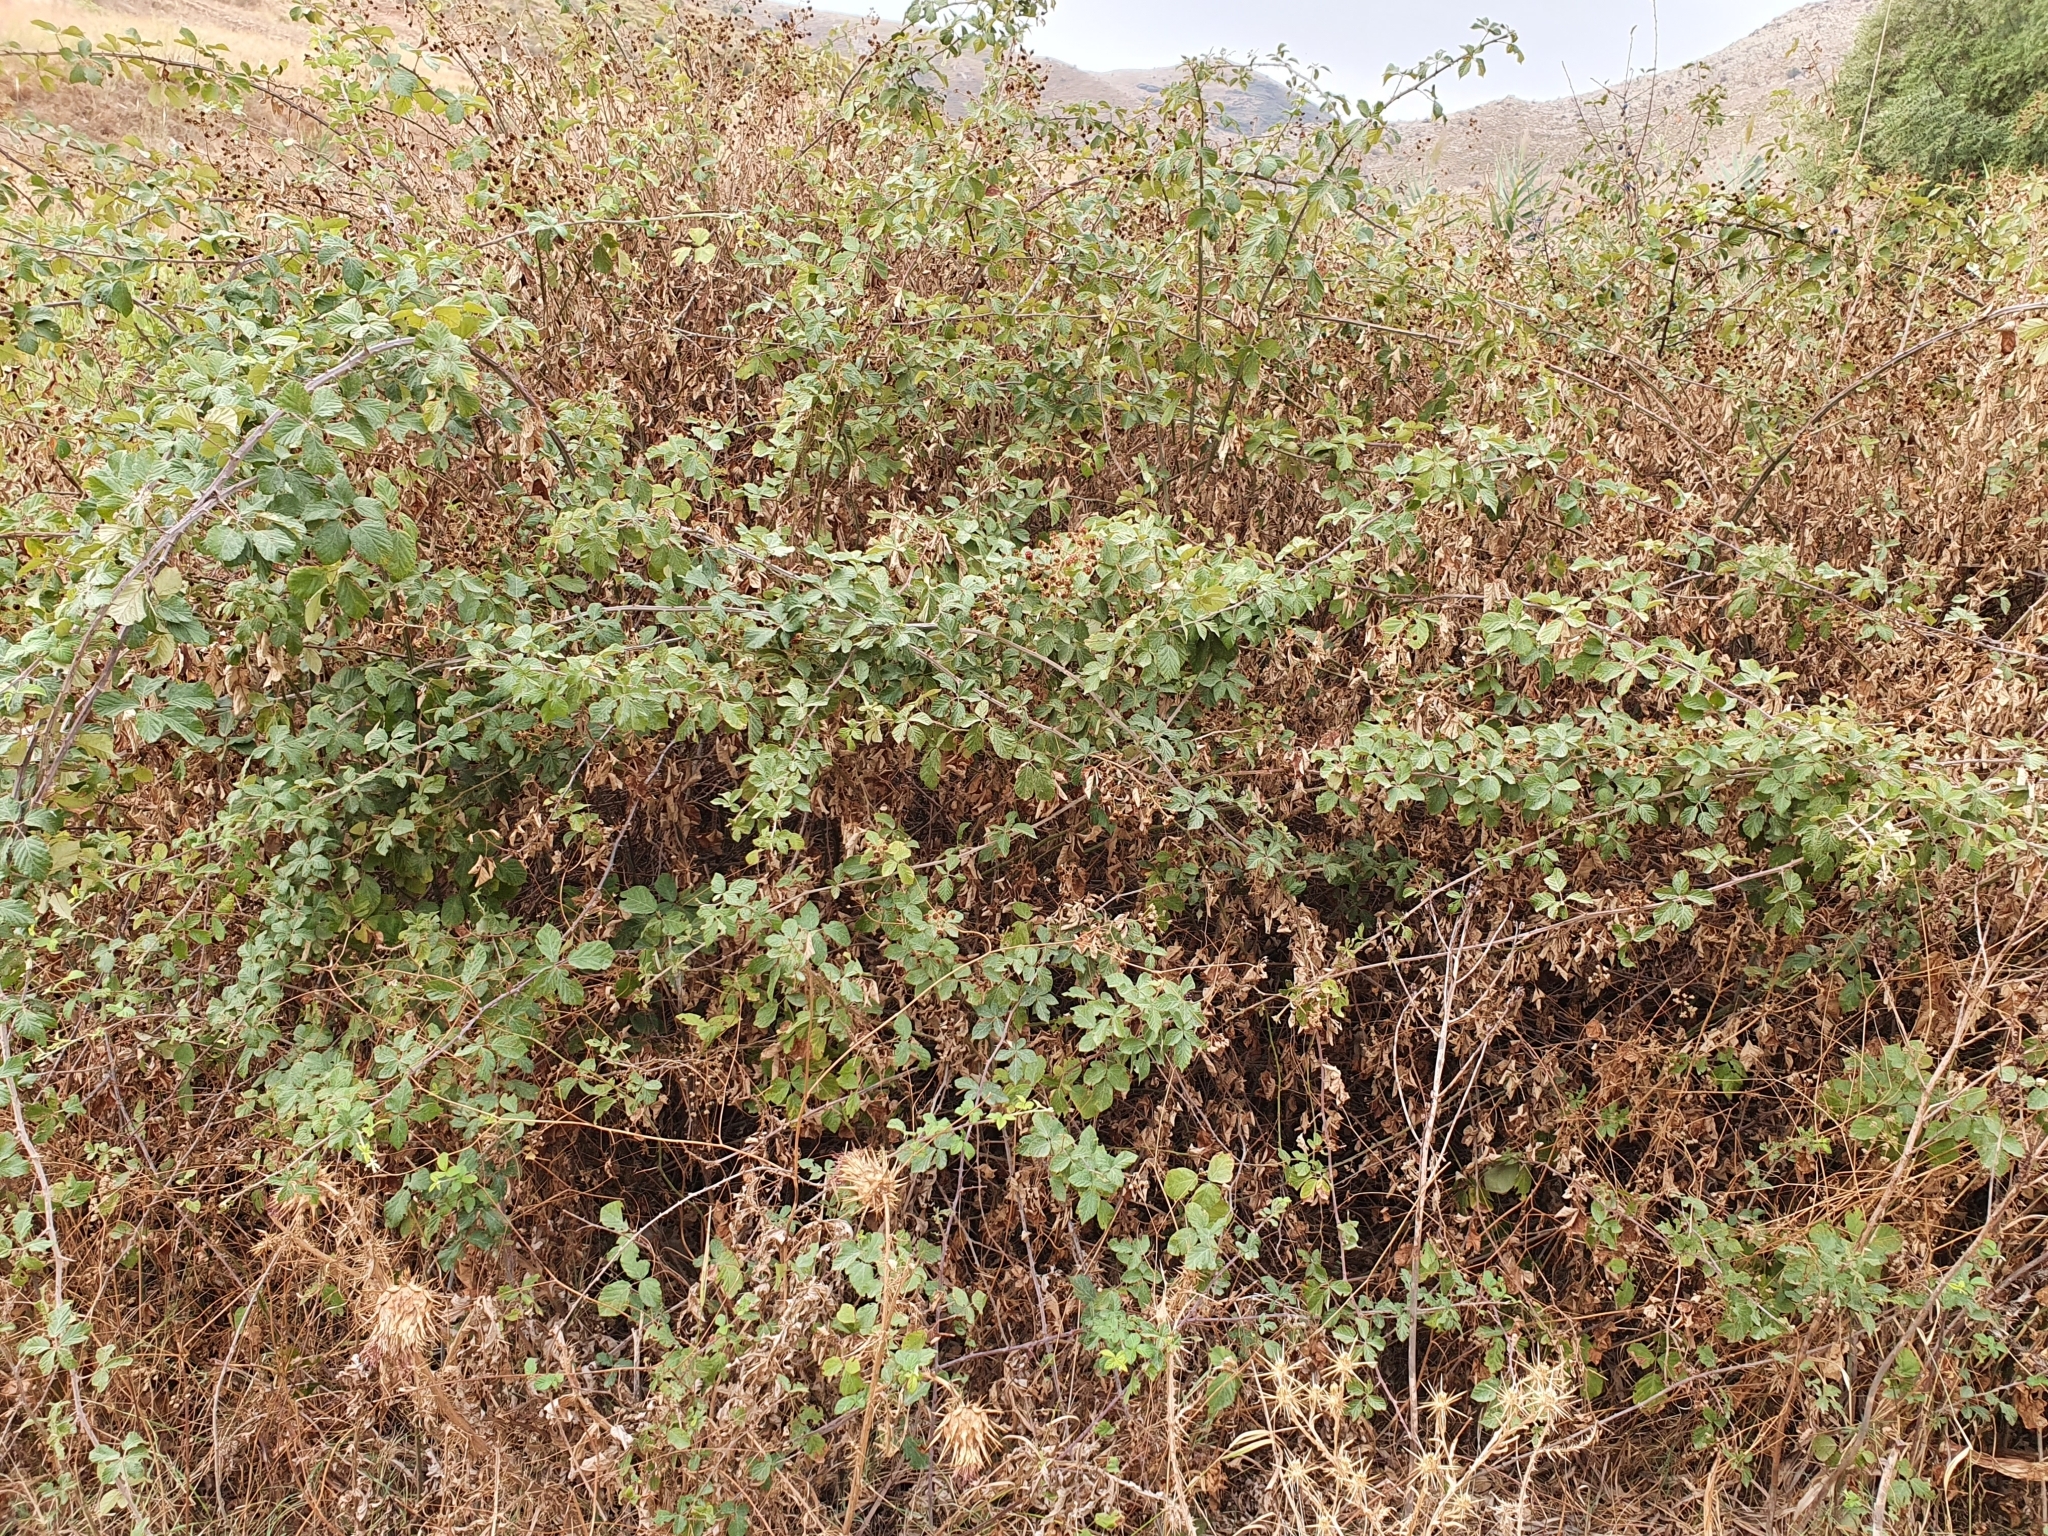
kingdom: Plantae
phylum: Tracheophyta
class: Magnoliopsida
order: Rosales
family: Rosaceae
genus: Rubus
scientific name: Rubus ulmifolius
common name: Elmleaf blackberry
